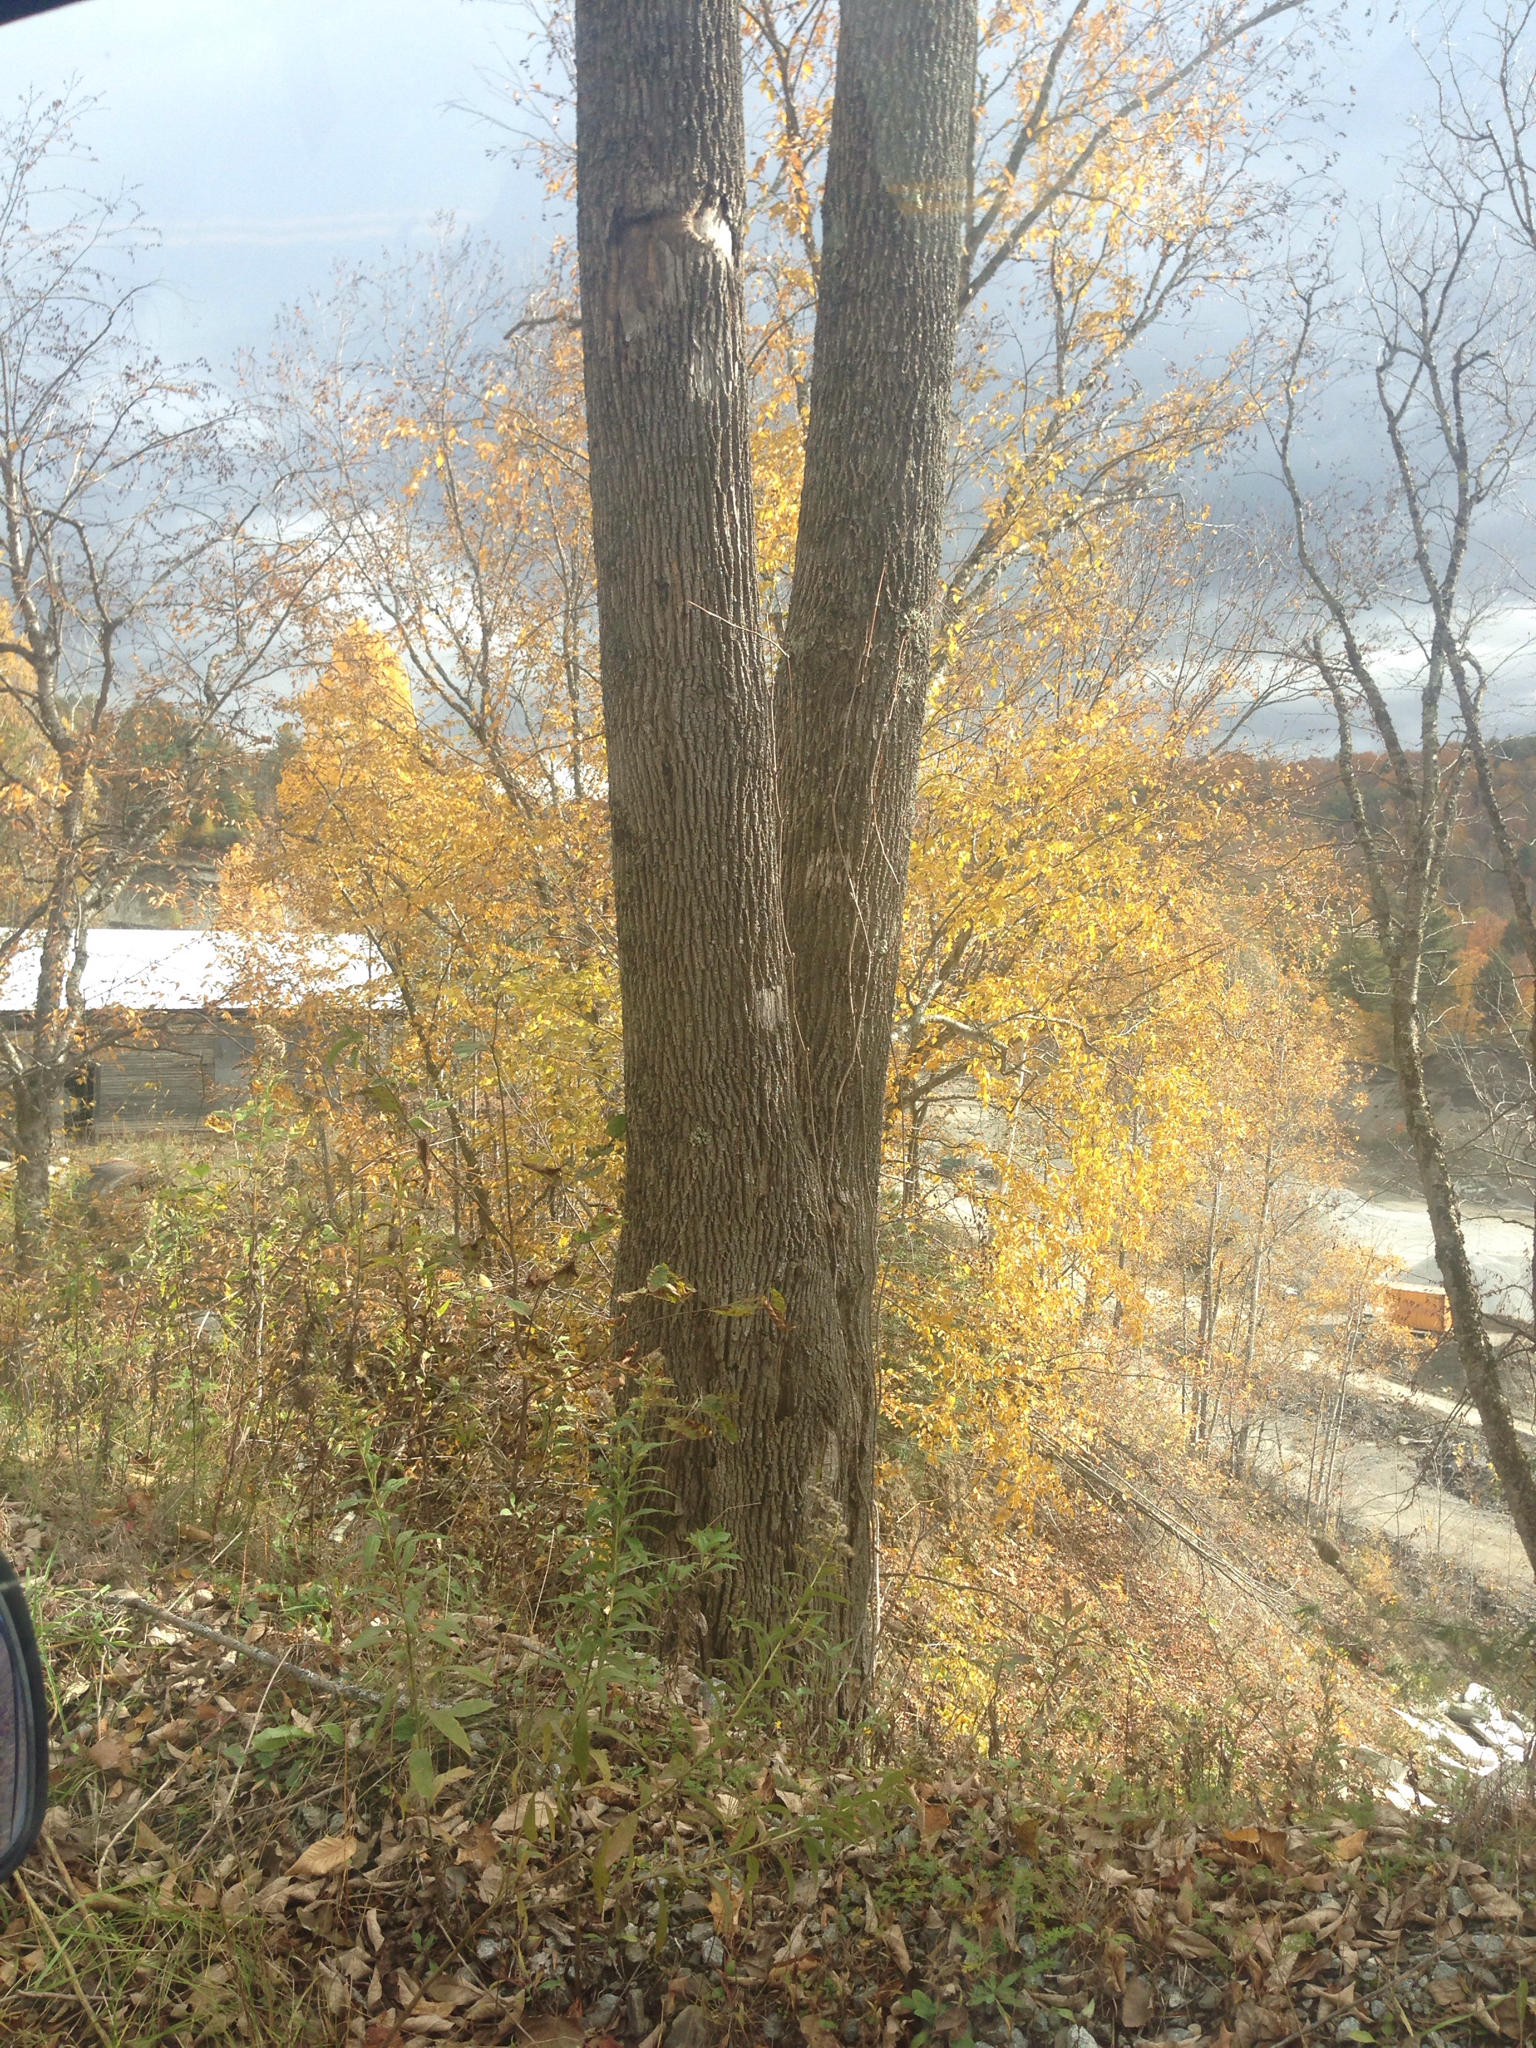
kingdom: Plantae
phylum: Tracheophyta
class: Magnoliopsida
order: Lamiales
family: Oleaceae
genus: Fraxinus
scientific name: Fraxinus americana
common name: White ash
